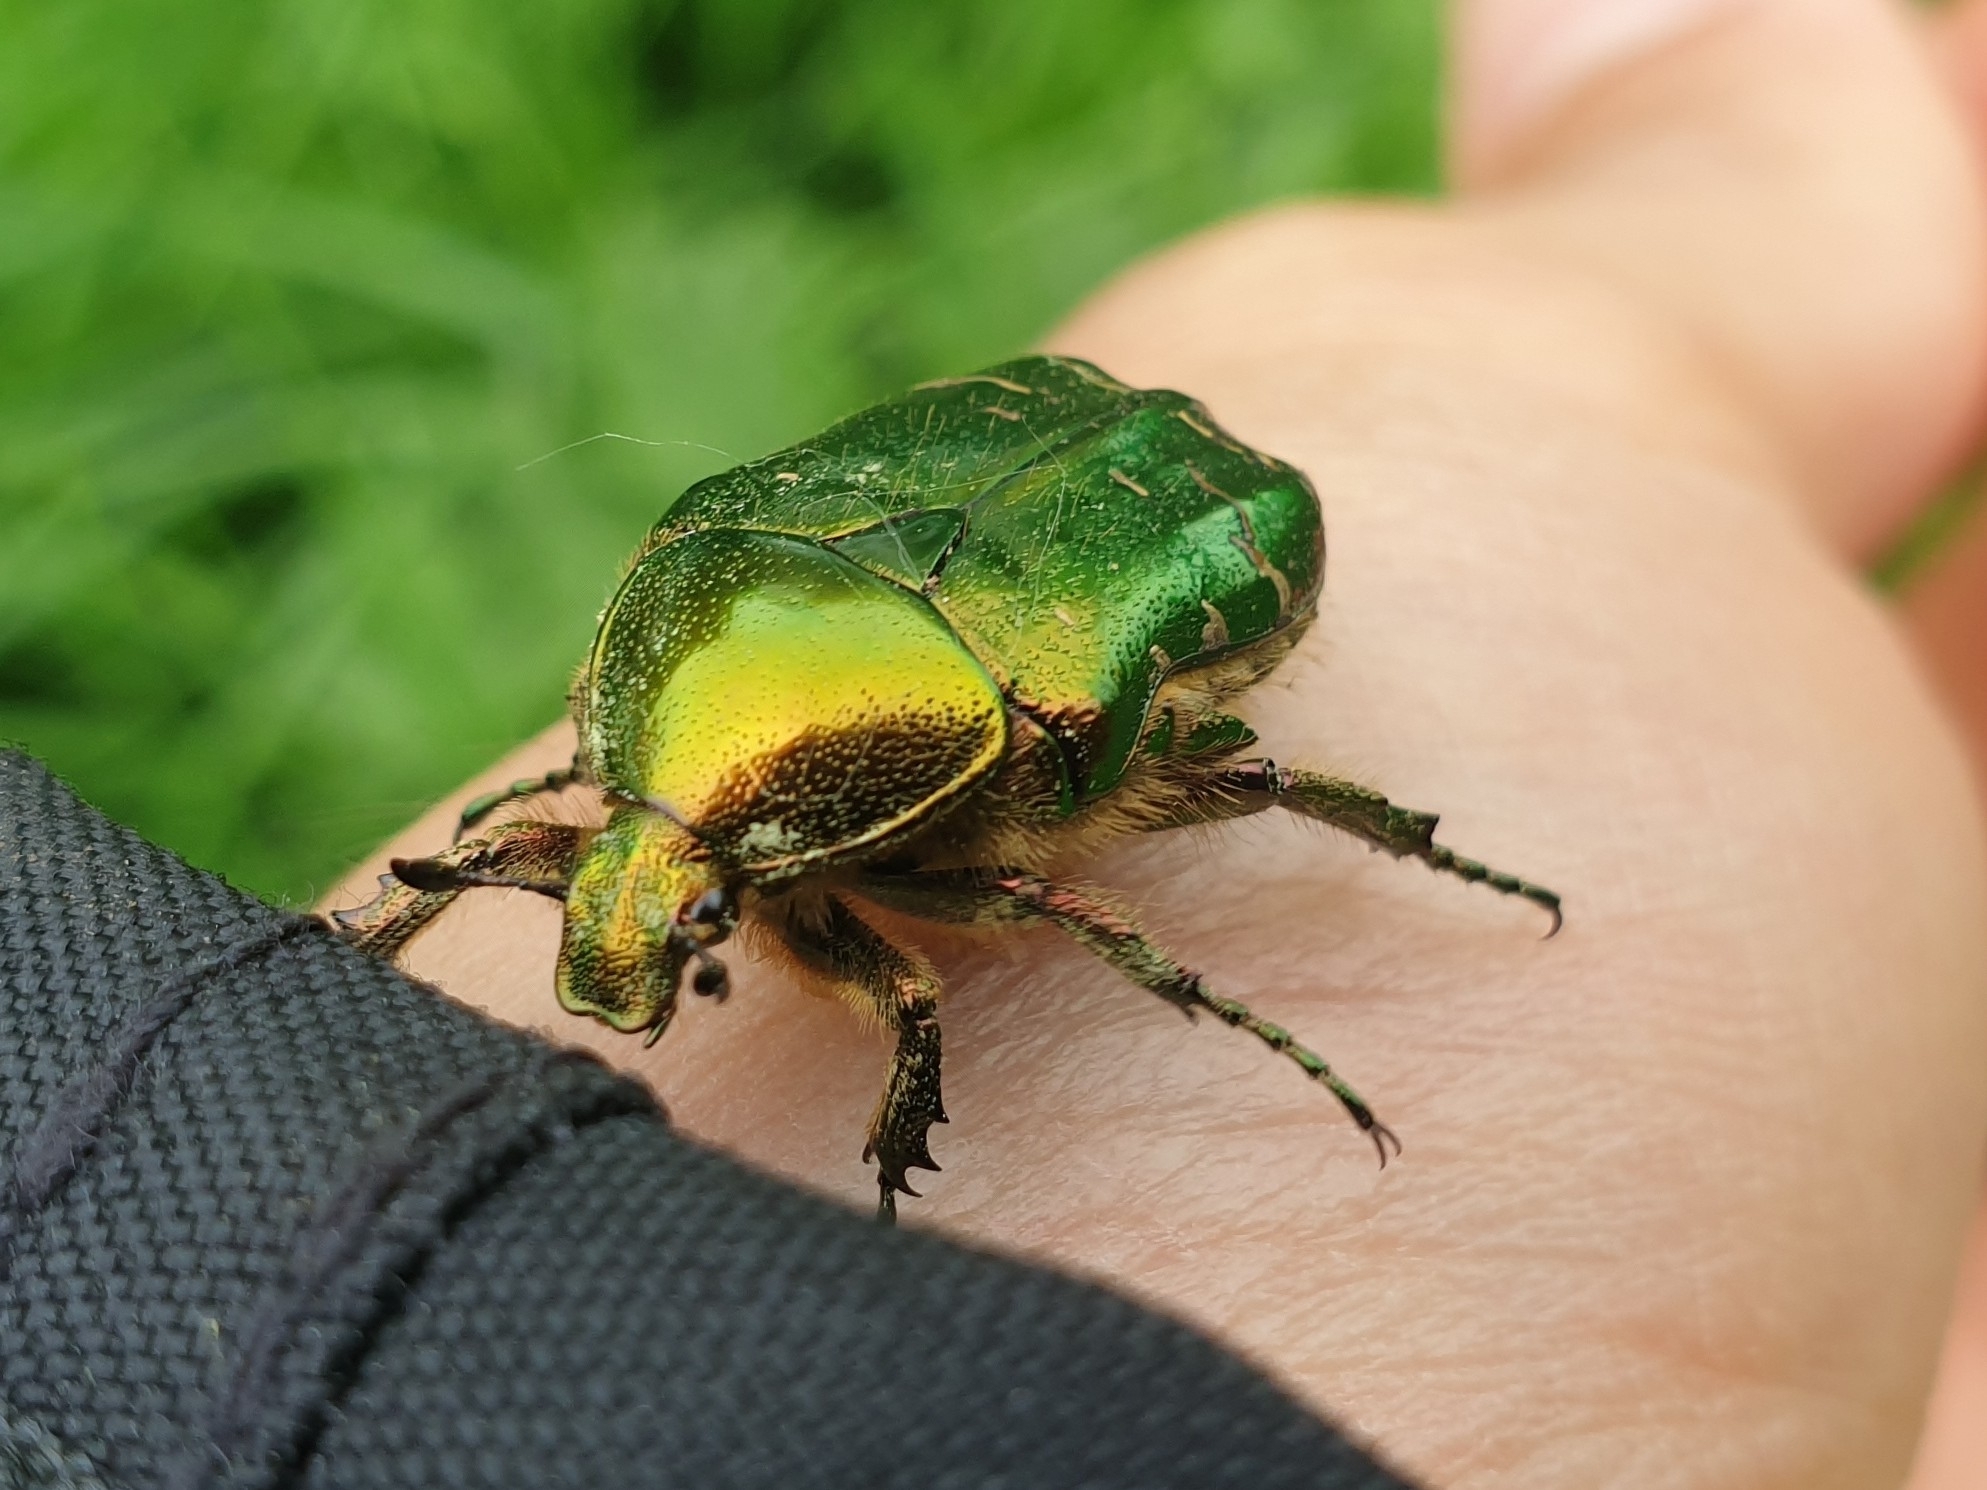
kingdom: Animalia
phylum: Arthropoda
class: Insecta
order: Coleoptera
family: Scarabaeidae
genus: Cetonia
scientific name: Cetonia aurata
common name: Rose chafer
